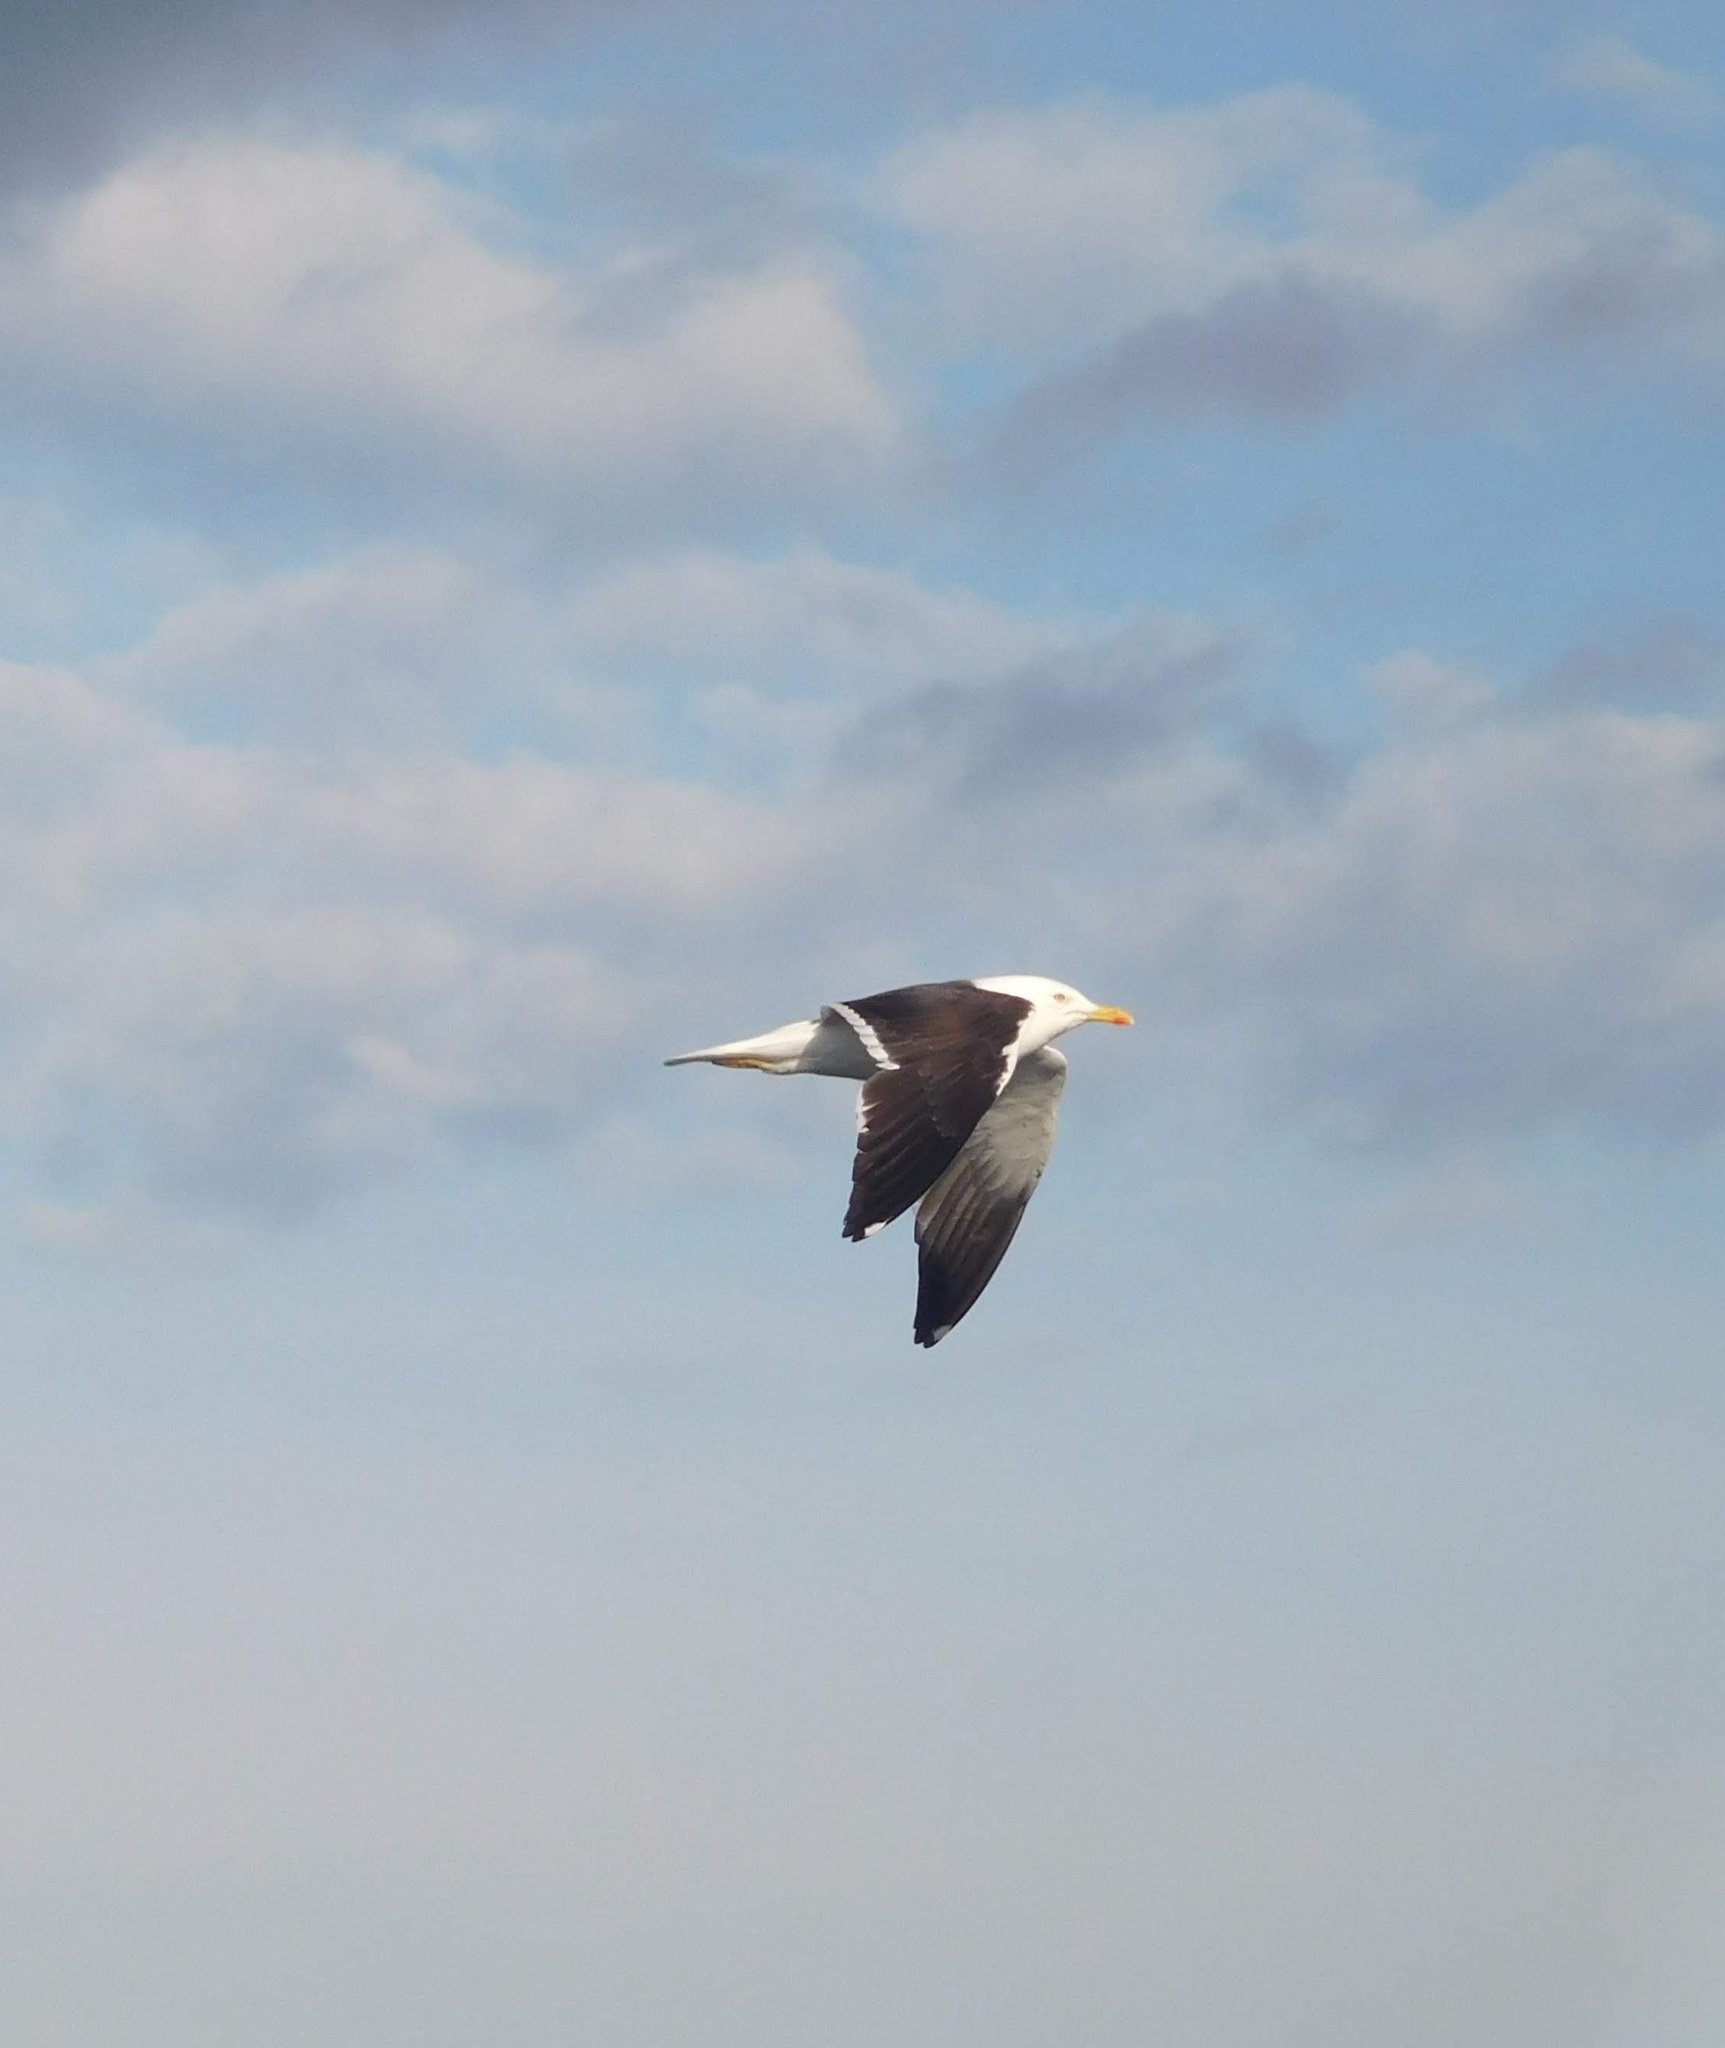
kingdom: Animalia
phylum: Chordata
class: Aves
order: Charadriiformes
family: Laridae
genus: Larus
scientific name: Larus fuscus
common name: Lesser black-backed gull
